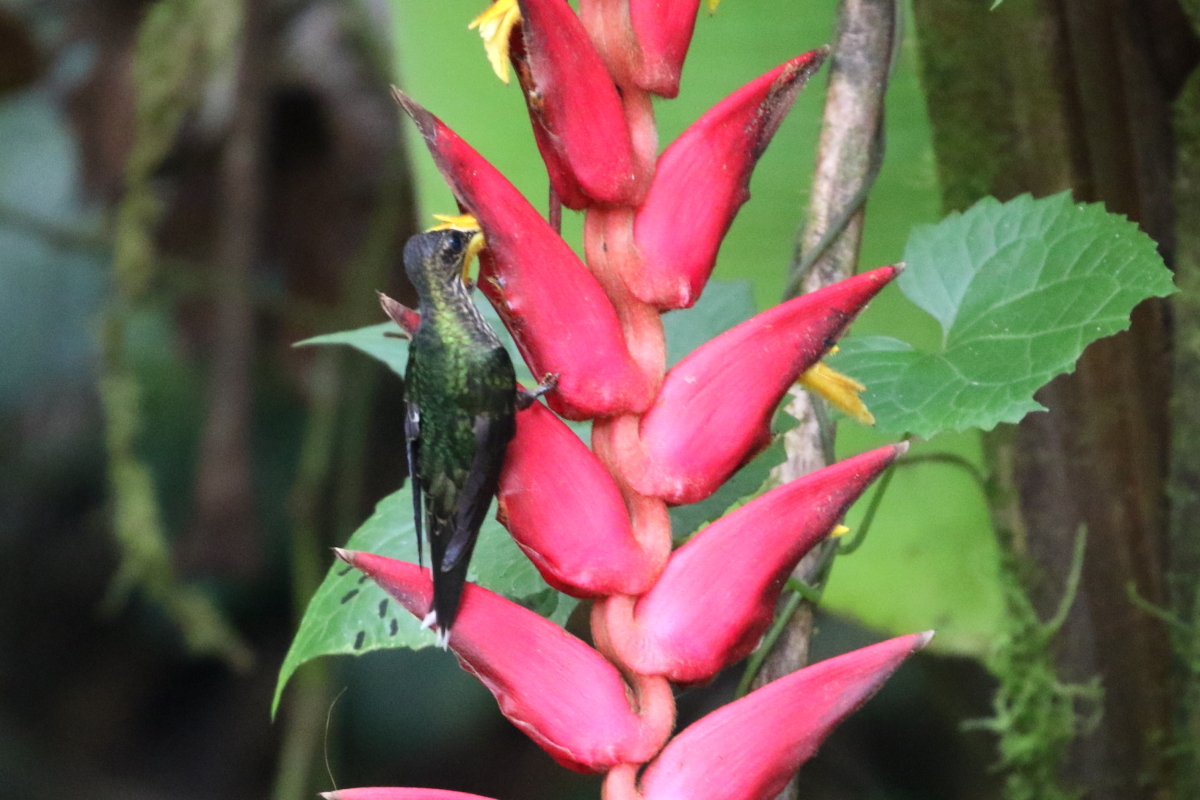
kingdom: Animalia
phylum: Chordata
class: Aves
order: Apodiformes
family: Trochilidae
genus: Eutoxeres
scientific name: Eutoxeres aquila
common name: White-tipped sicklebill
